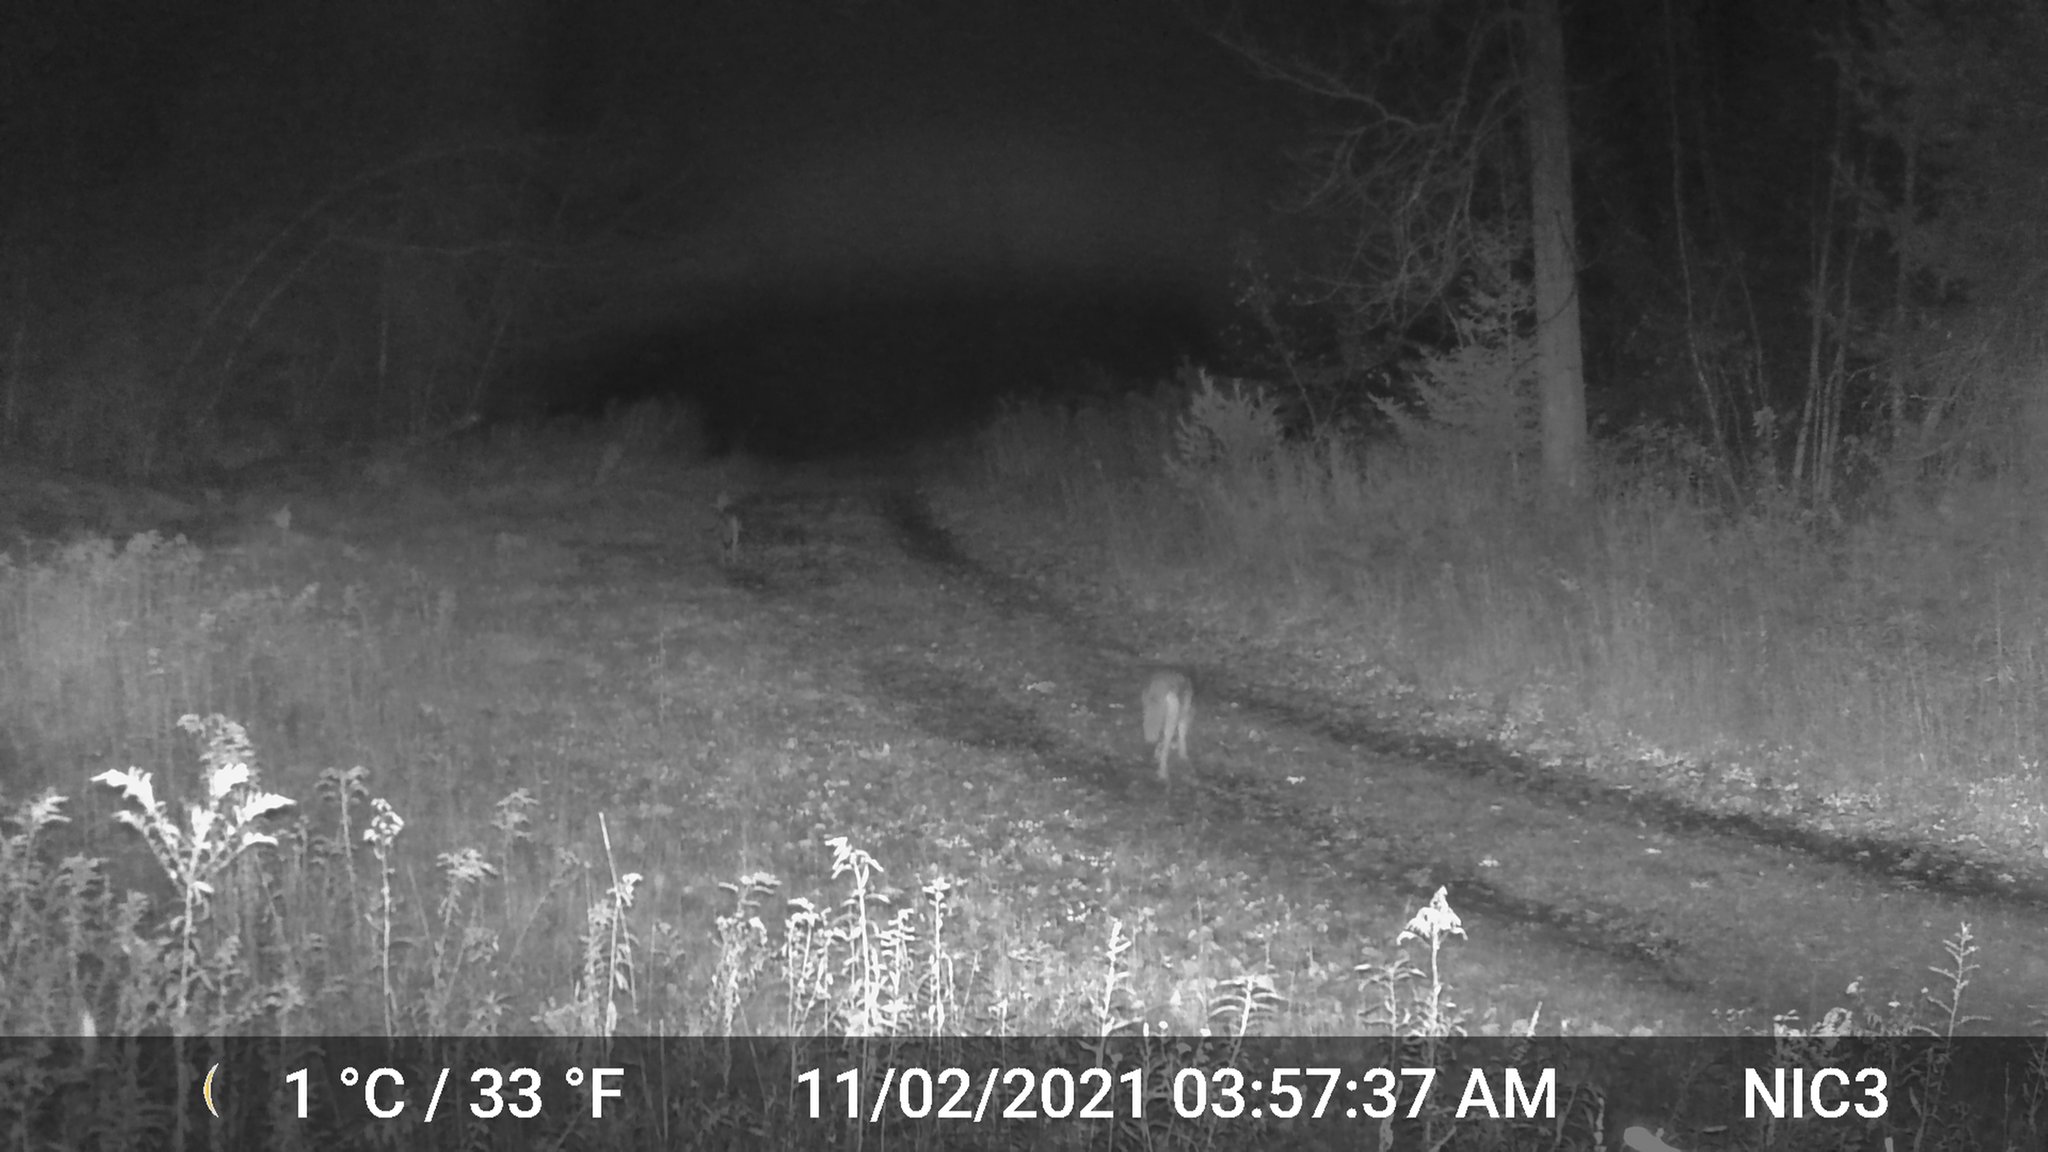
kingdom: Animalia
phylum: Chordata
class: Mammalia
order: Carnivora
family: Canidae
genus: Canis
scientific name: Canis latrans
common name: Coyote
